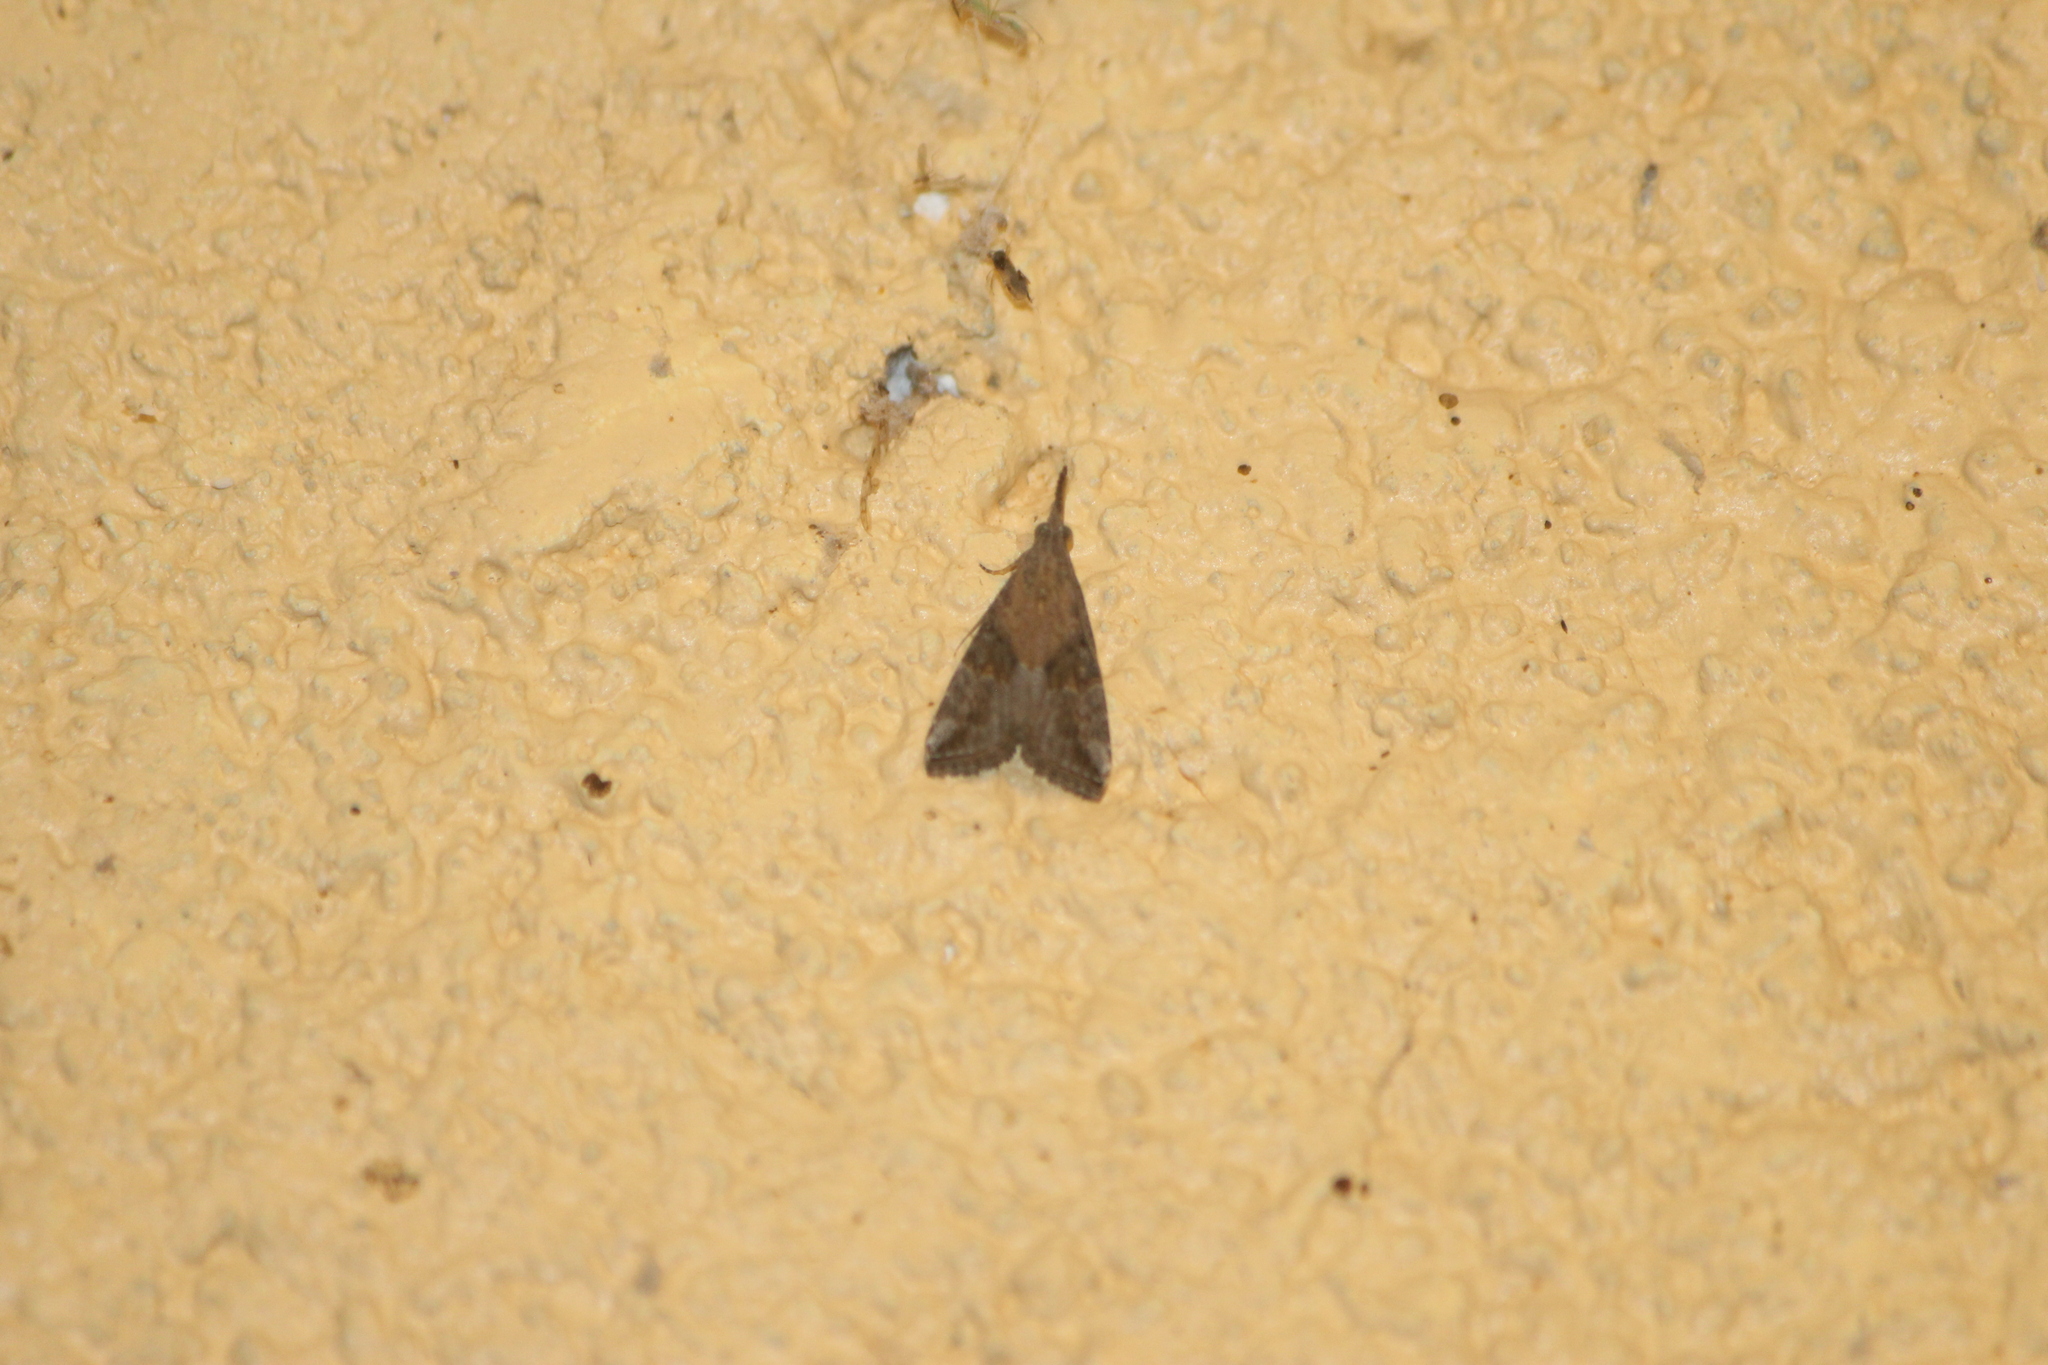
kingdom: Animalia
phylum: Arthropoda
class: Insecta
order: Lepidoptera
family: Erebidae
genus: Hypena
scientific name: Hypena minualis
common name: Sooty snout
